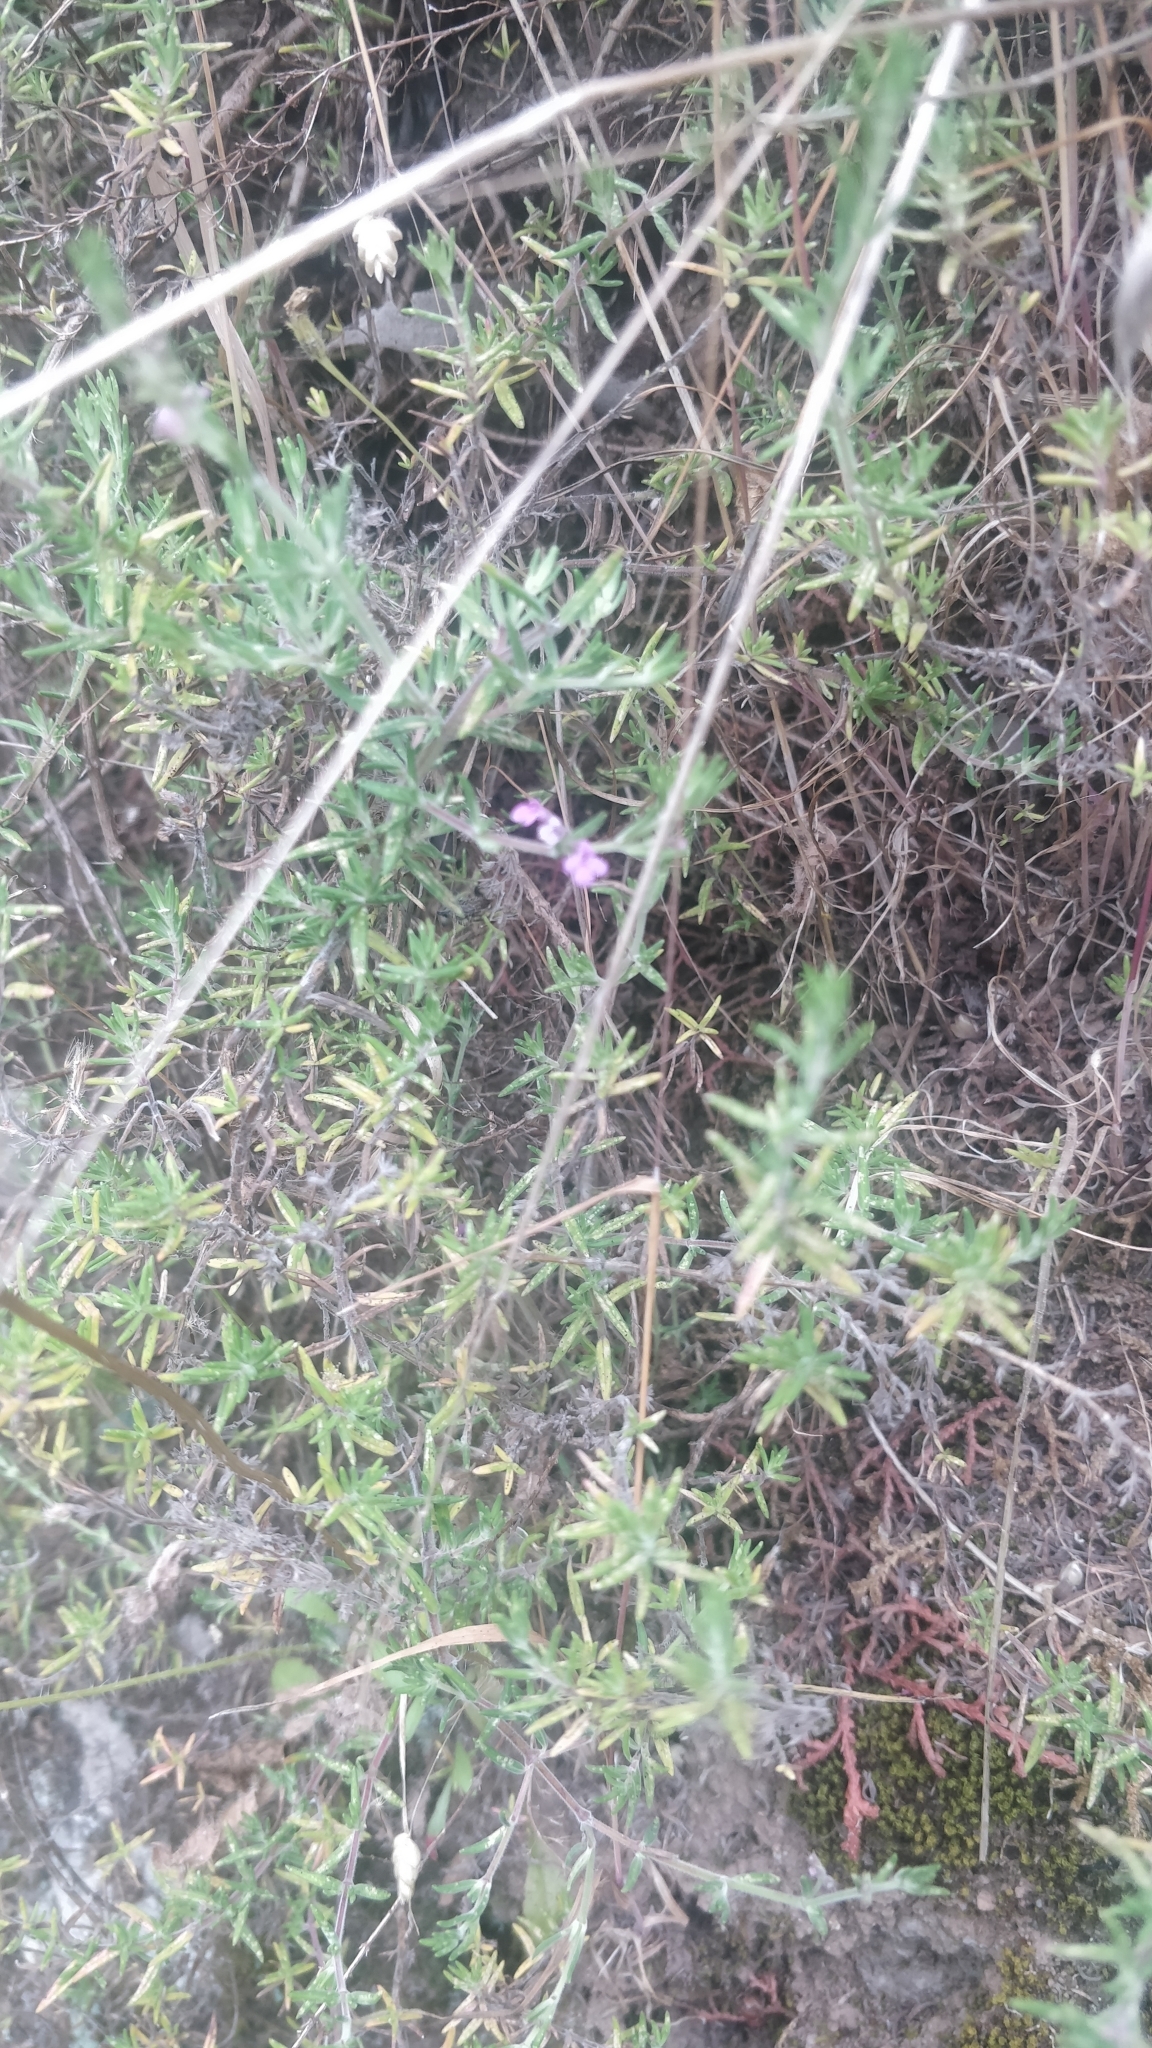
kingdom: Plantae
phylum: Tracheophyta
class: Magnoliopsida
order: Lamiales
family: Lamiaceae
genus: Micromeria
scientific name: Micromeria maderensis
